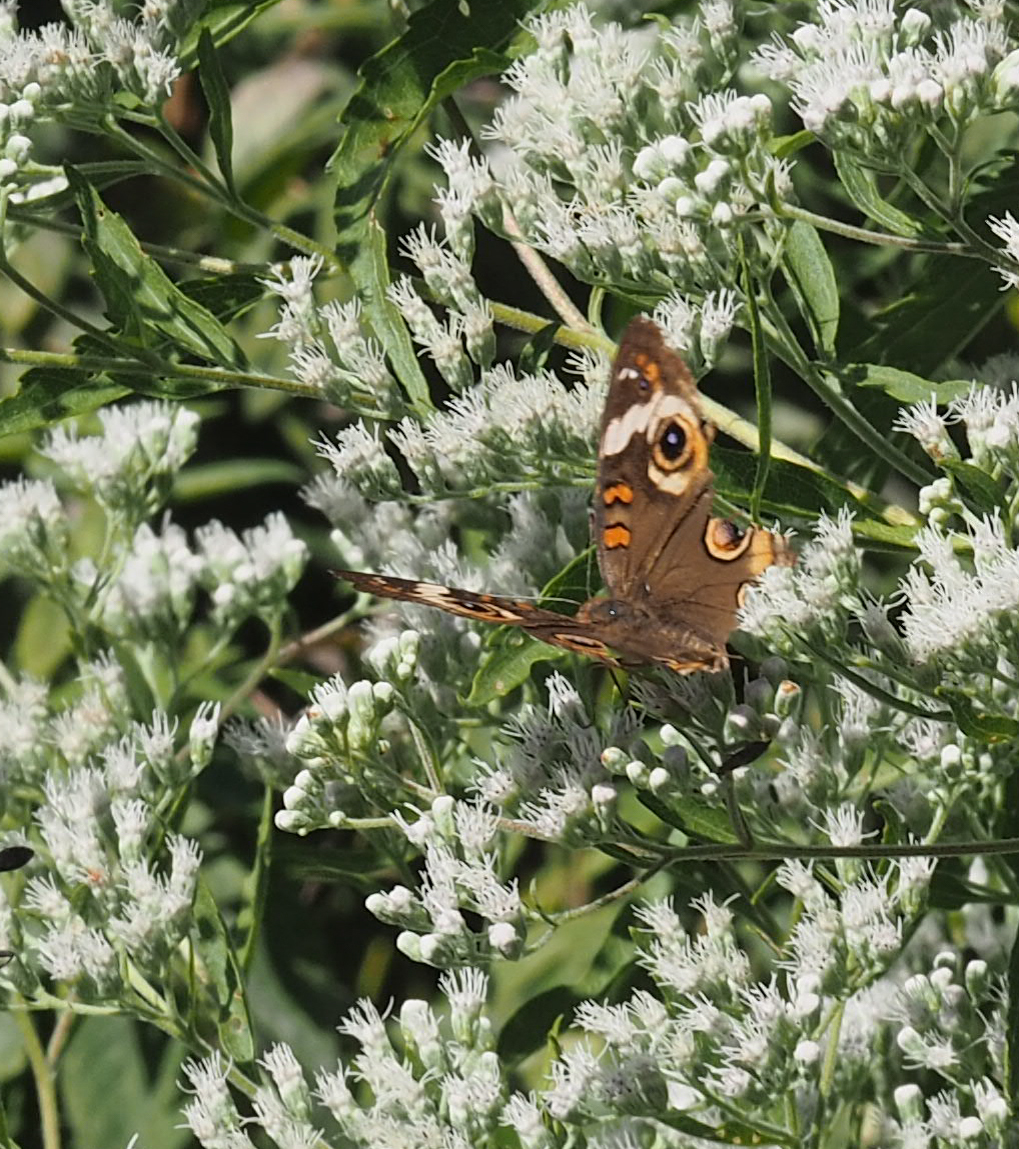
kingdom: Animalia
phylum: Arthropoda
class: Insecta
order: Lepidoptera
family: Nymphalidae
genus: Junonia
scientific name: Junonia coenia
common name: Common buckeye
